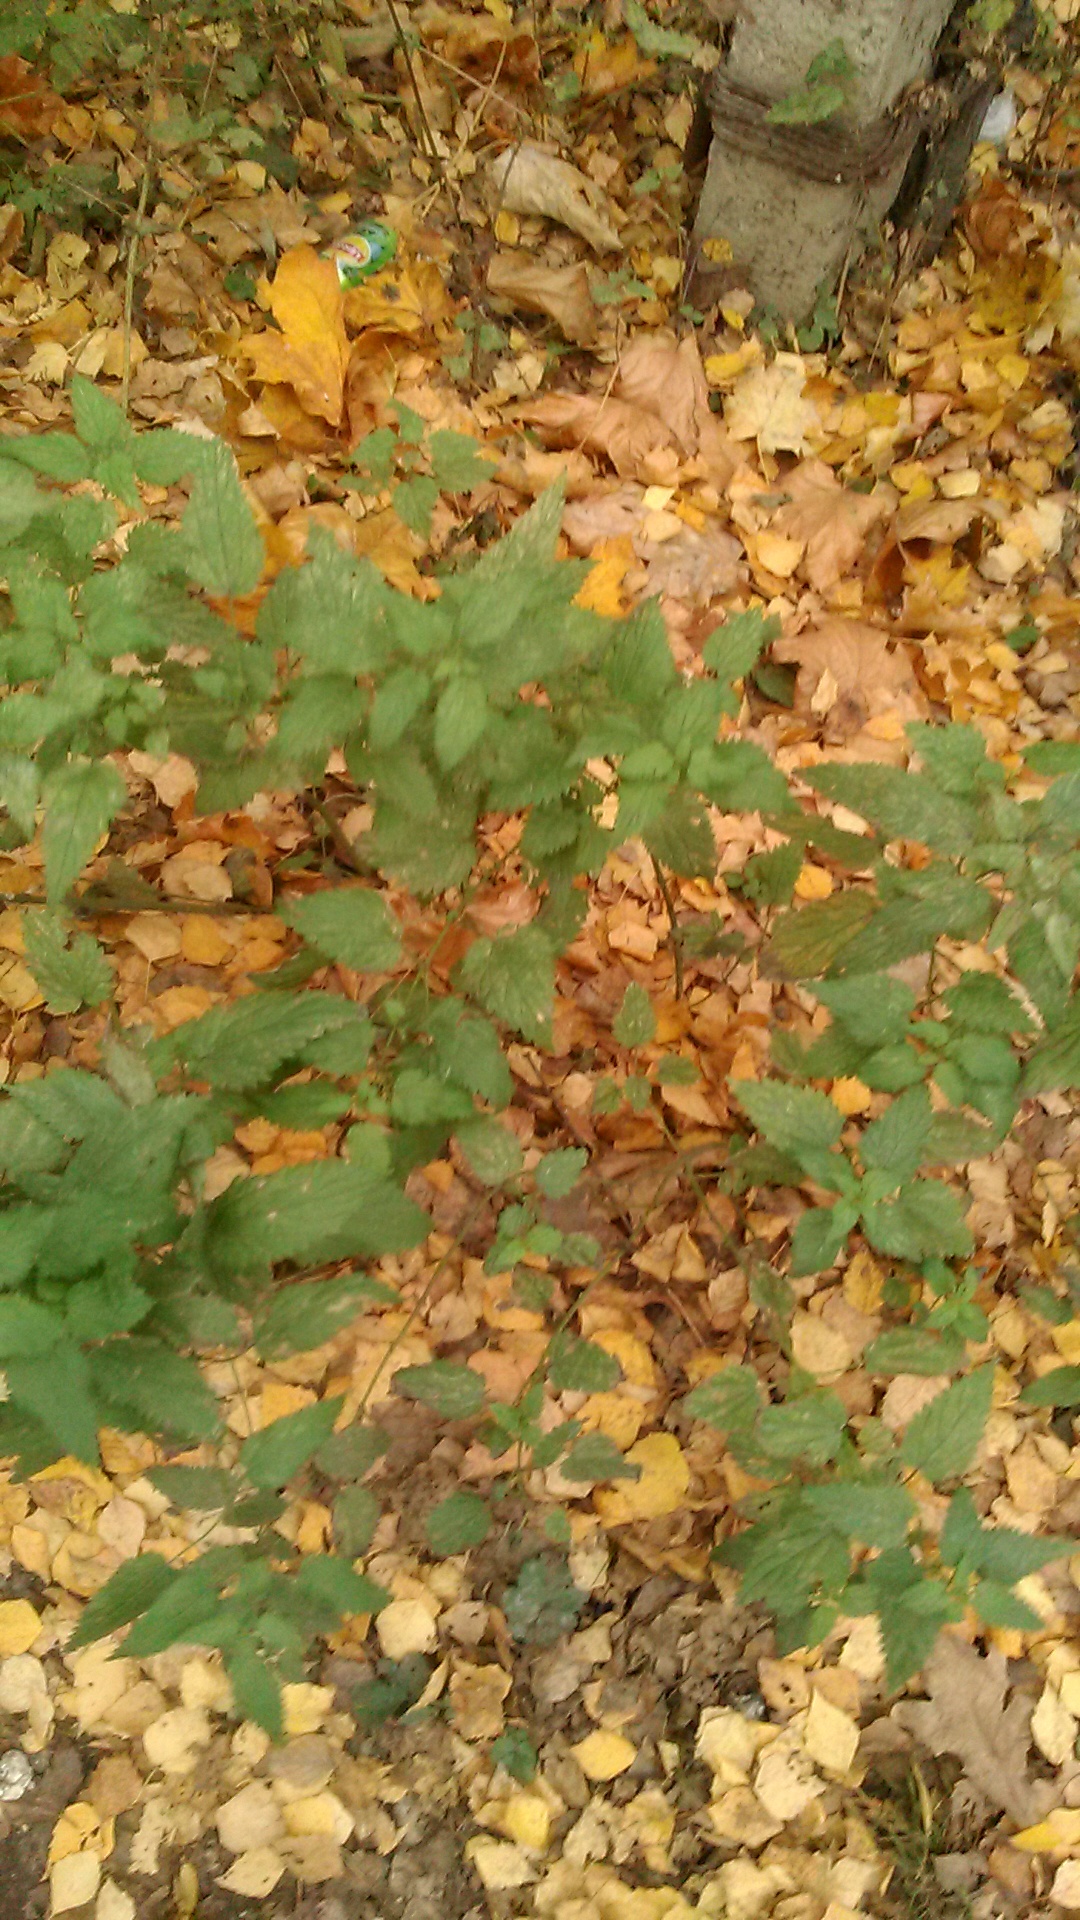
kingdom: Plantae
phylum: Tracheophyta
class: Magnoliopsida
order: Rosales
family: Urticaceae
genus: Urtica
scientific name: Urtica dioica
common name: Common nettle
